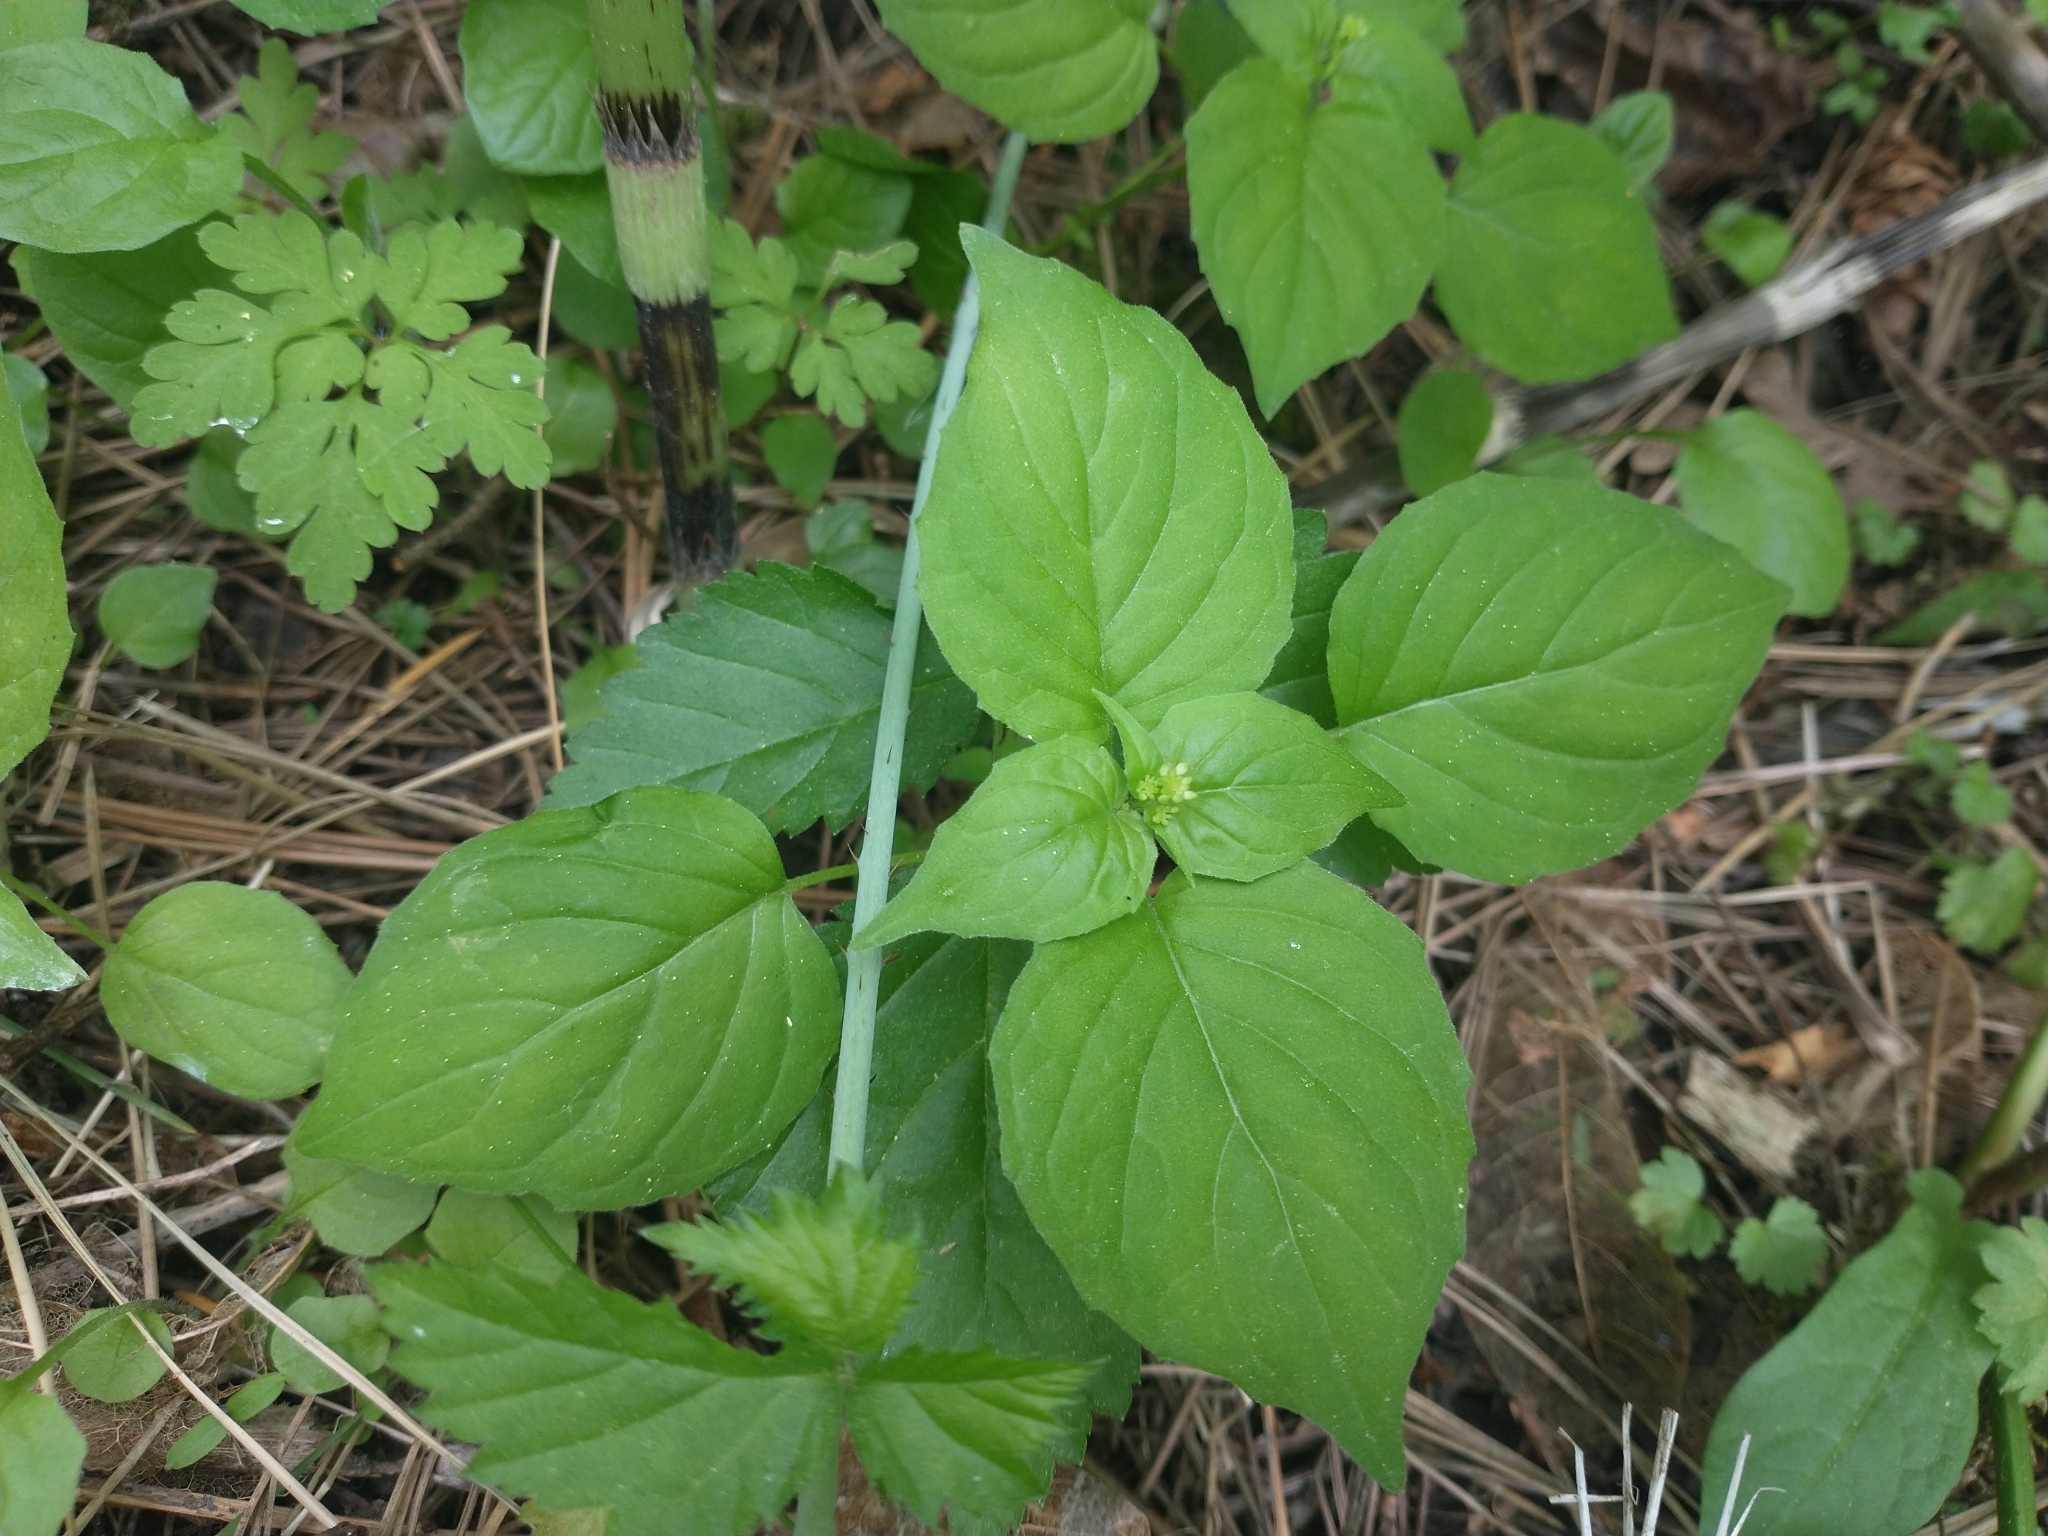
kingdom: Plantae
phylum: Tracheophyta
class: Magnoliopsida
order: Myrtales
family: Onagraceae
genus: Circaea
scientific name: Circaea alpina
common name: Alpine enchanter's-nightshade
